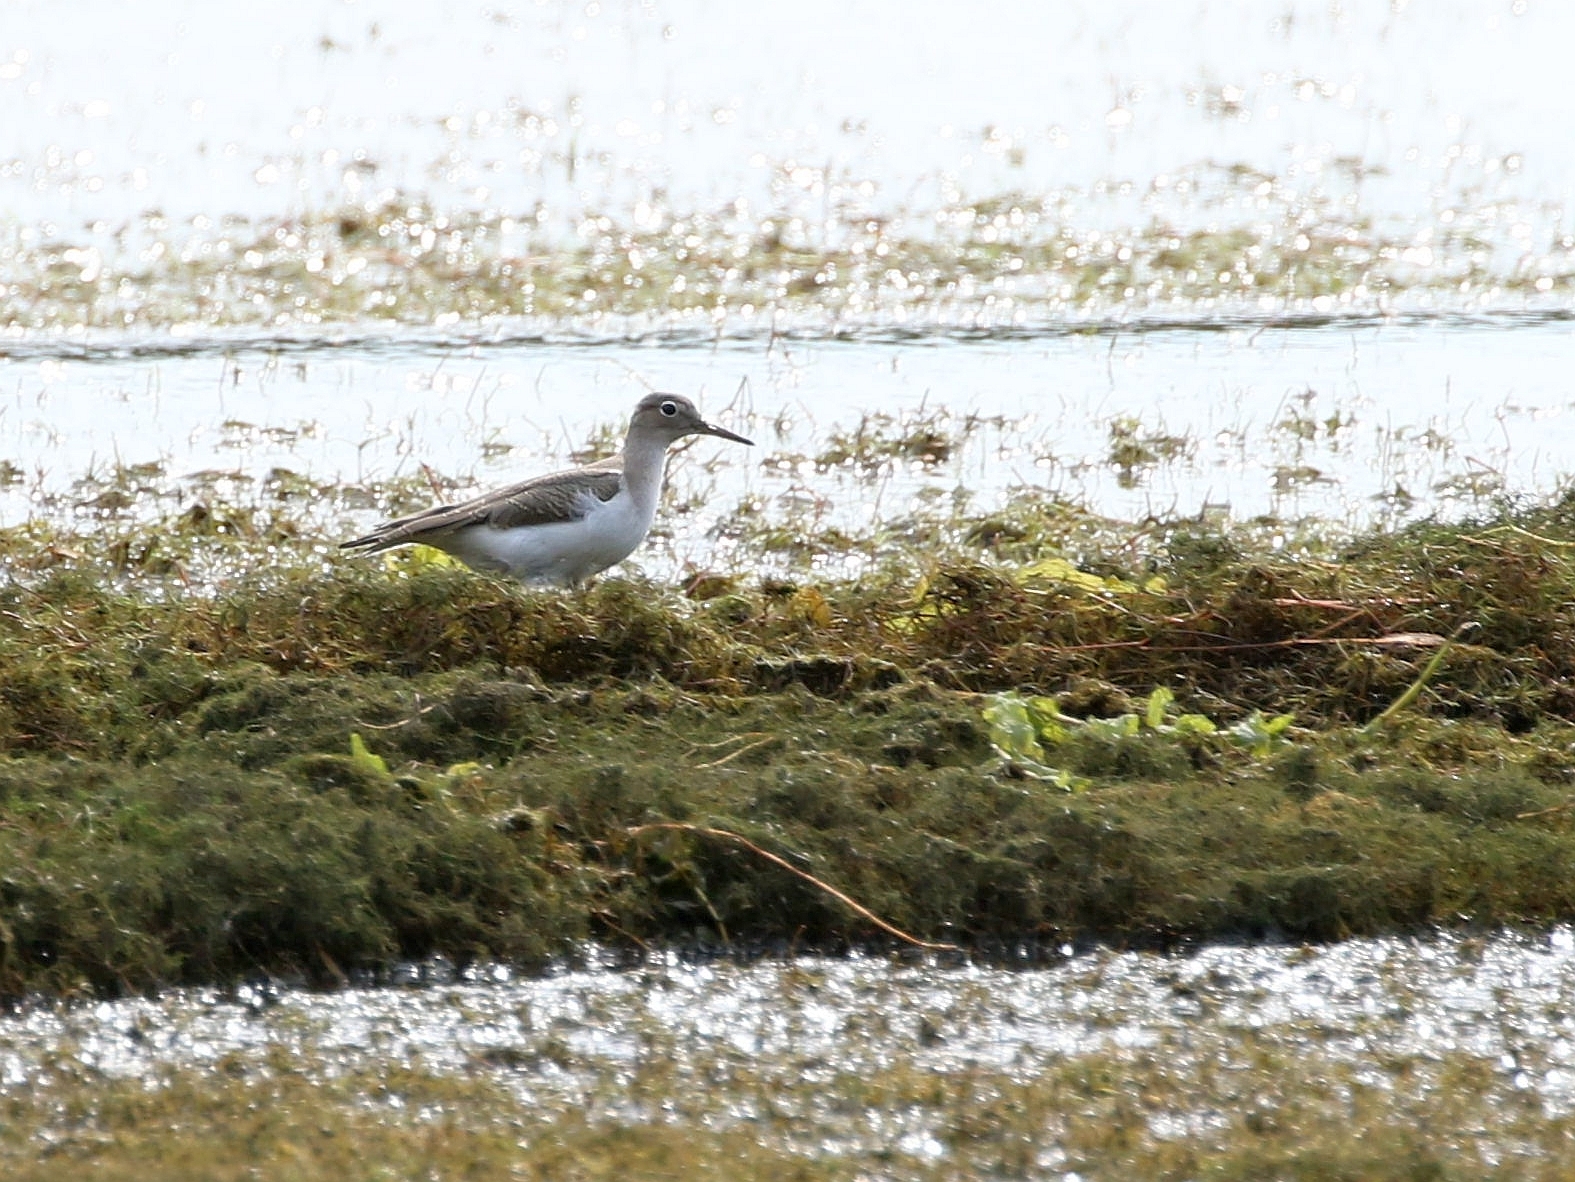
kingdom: Animalia
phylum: Chordata
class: Aves
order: Charadriiformes
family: Scolopacidae
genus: Actitis
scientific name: Actitis macularius
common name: Spotted sandpiper
